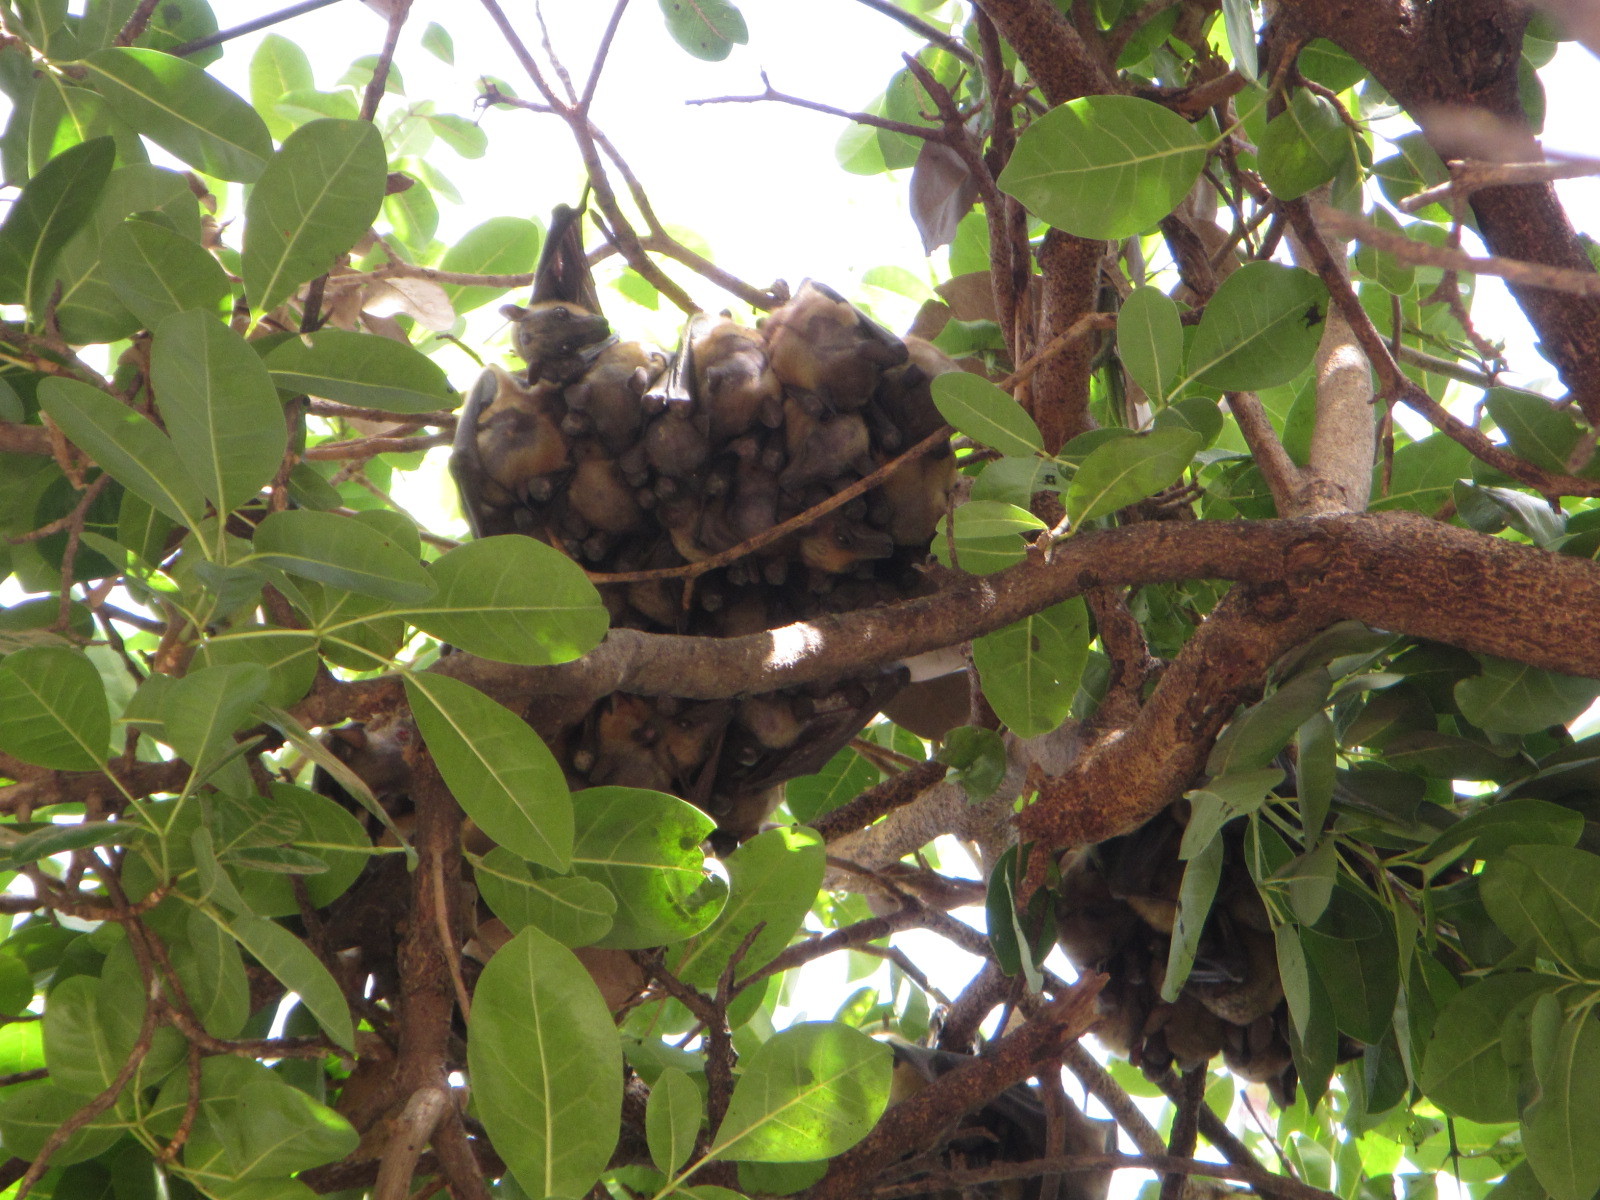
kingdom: Animalia
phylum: Chordata
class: Mammalia
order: Chiroptera
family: Pteropodidae
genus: Eidolon
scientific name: Eidolon helvum
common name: Straw-colored fruit bat
